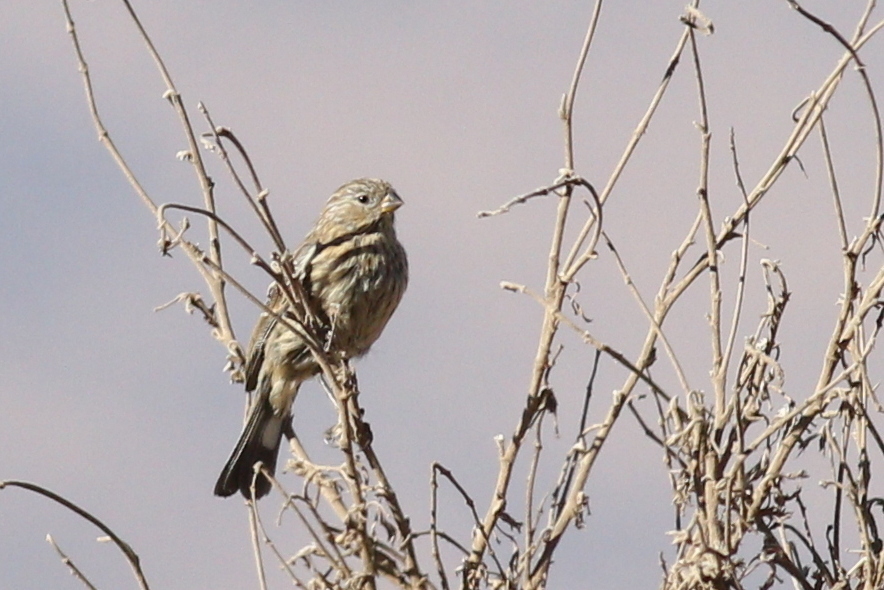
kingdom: Animalia
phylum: Chordata
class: Aves
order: Passeriformes
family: Thraupidae
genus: Catamenia
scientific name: Catamenia analis
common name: Band-tailed seedeater
